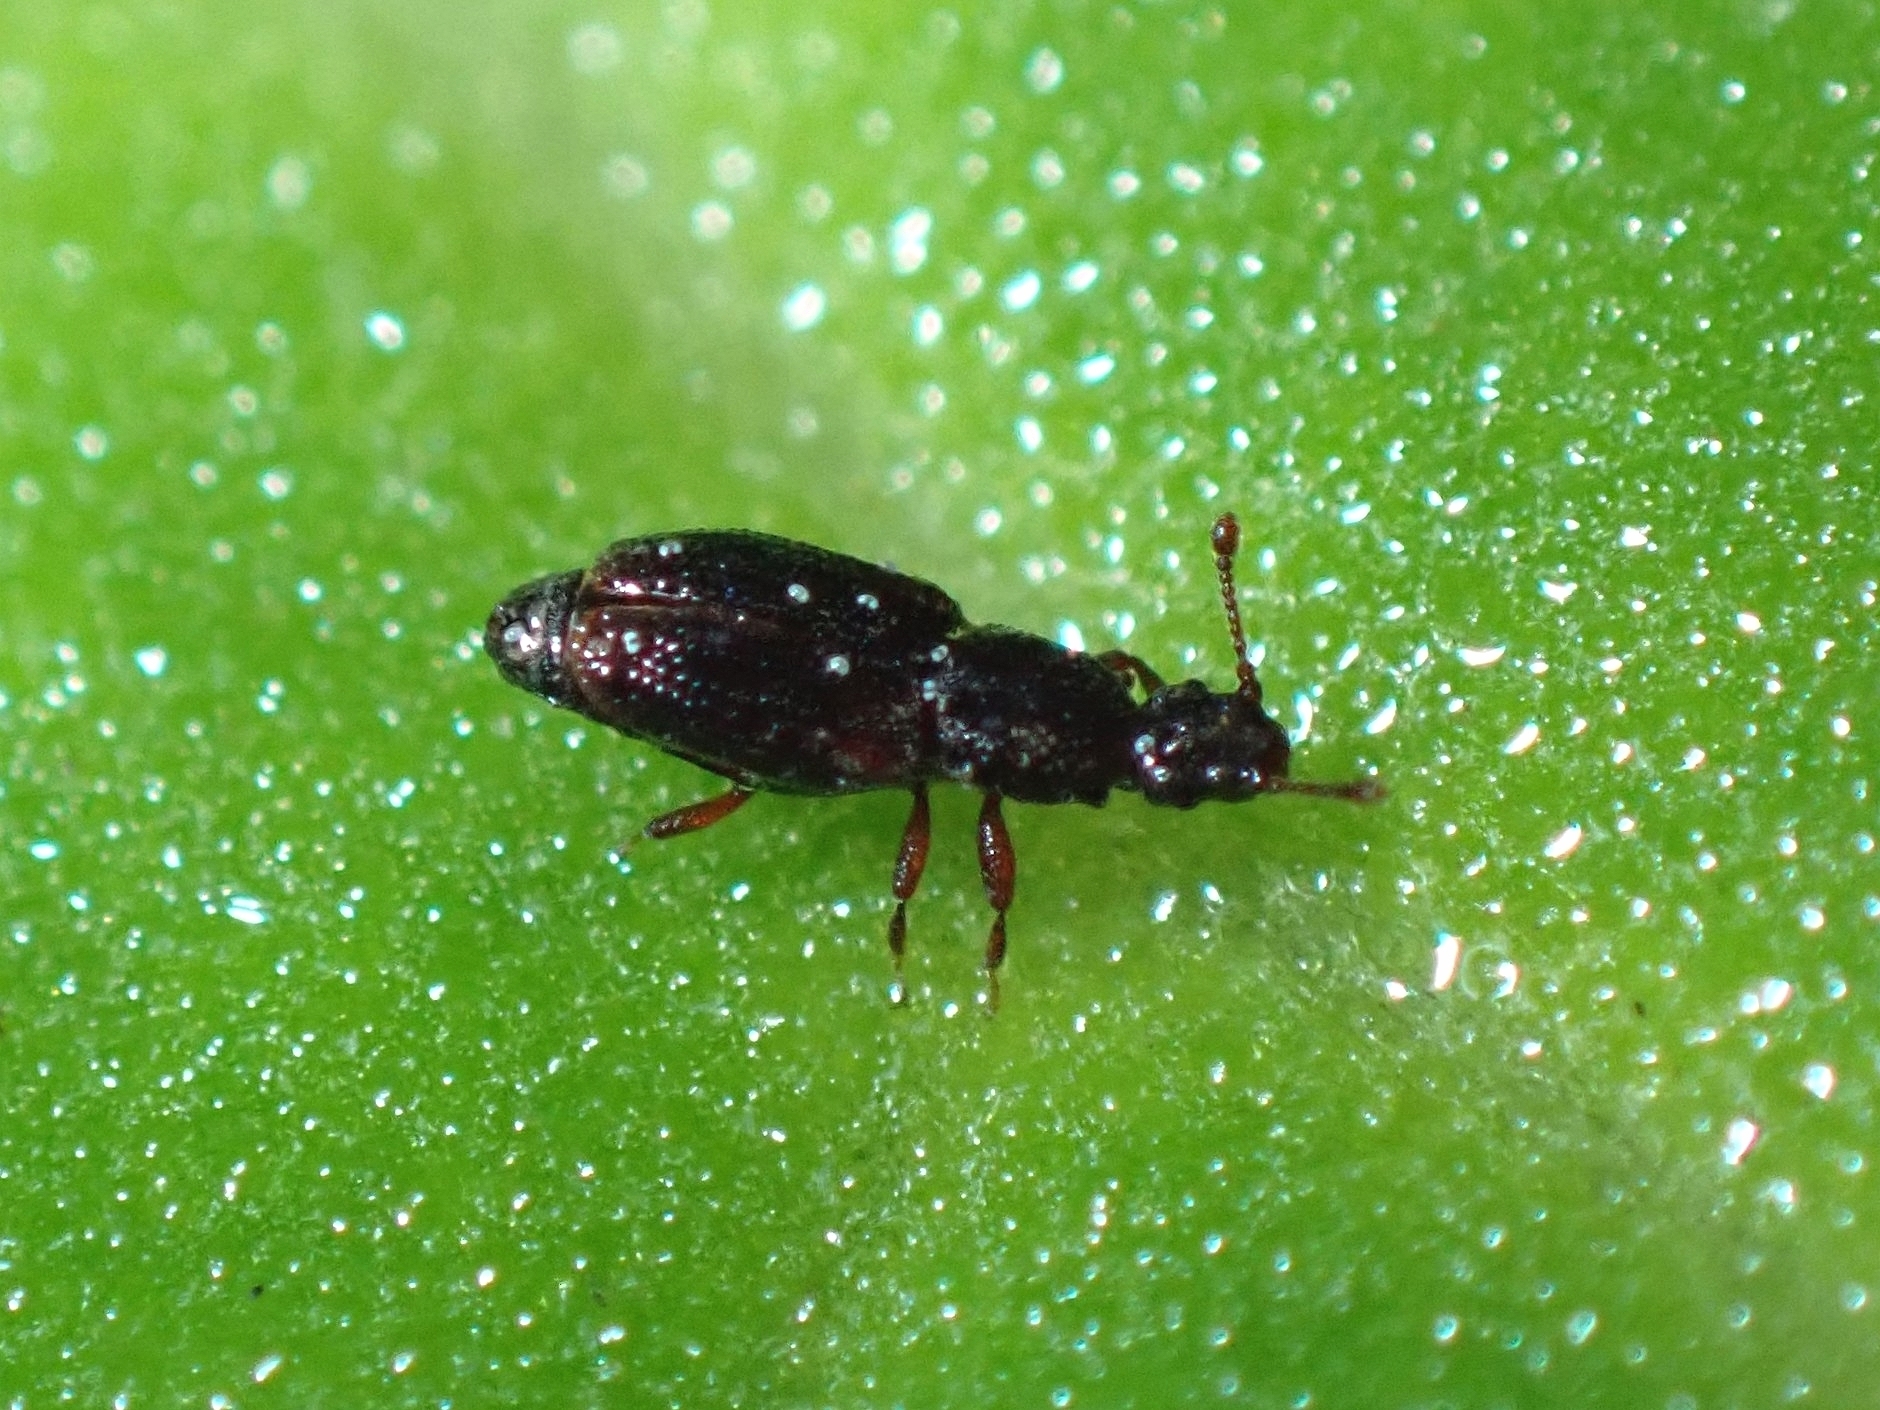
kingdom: Animalia
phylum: Arthropoda
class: Insecta
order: Coleoptera
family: Monotomidae
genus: Monotoma
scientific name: Monotoma
